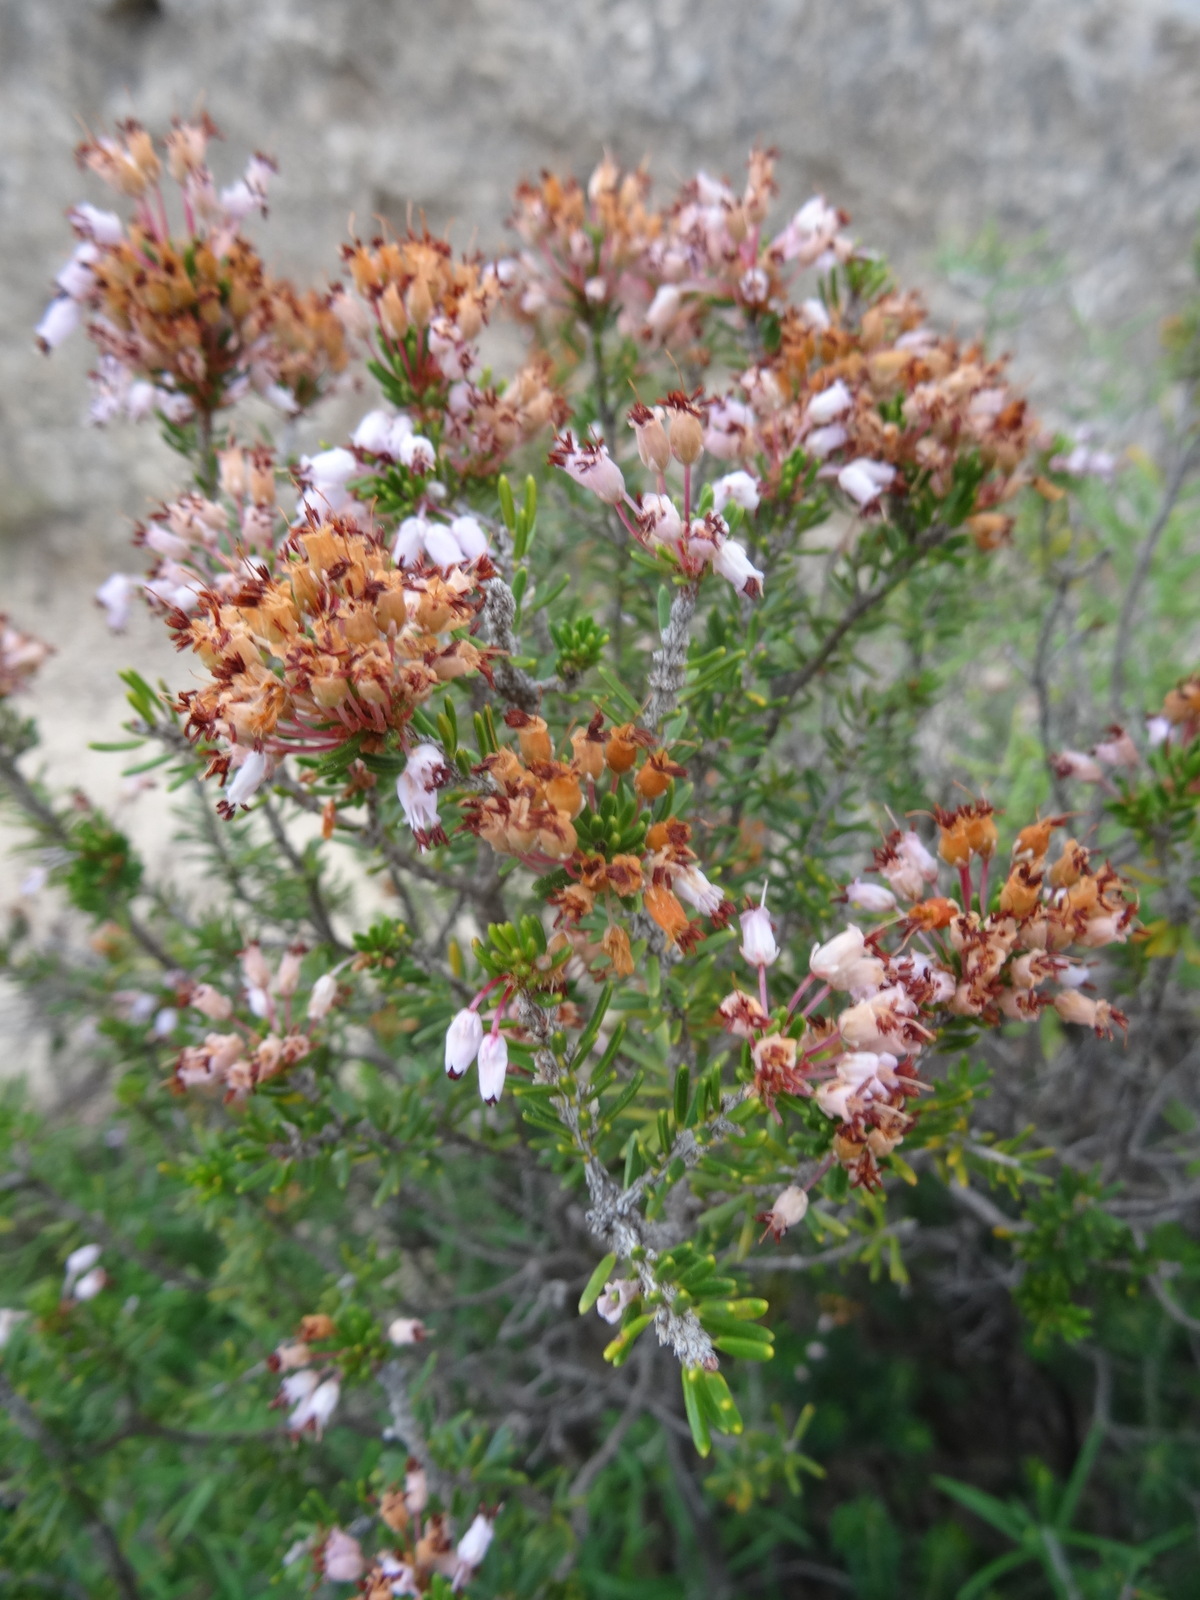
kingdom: Plantae
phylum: Tracheophyta
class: Magnoliopsida
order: Ericales
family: Ericaceae
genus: Erica
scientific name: Erica multiflora
